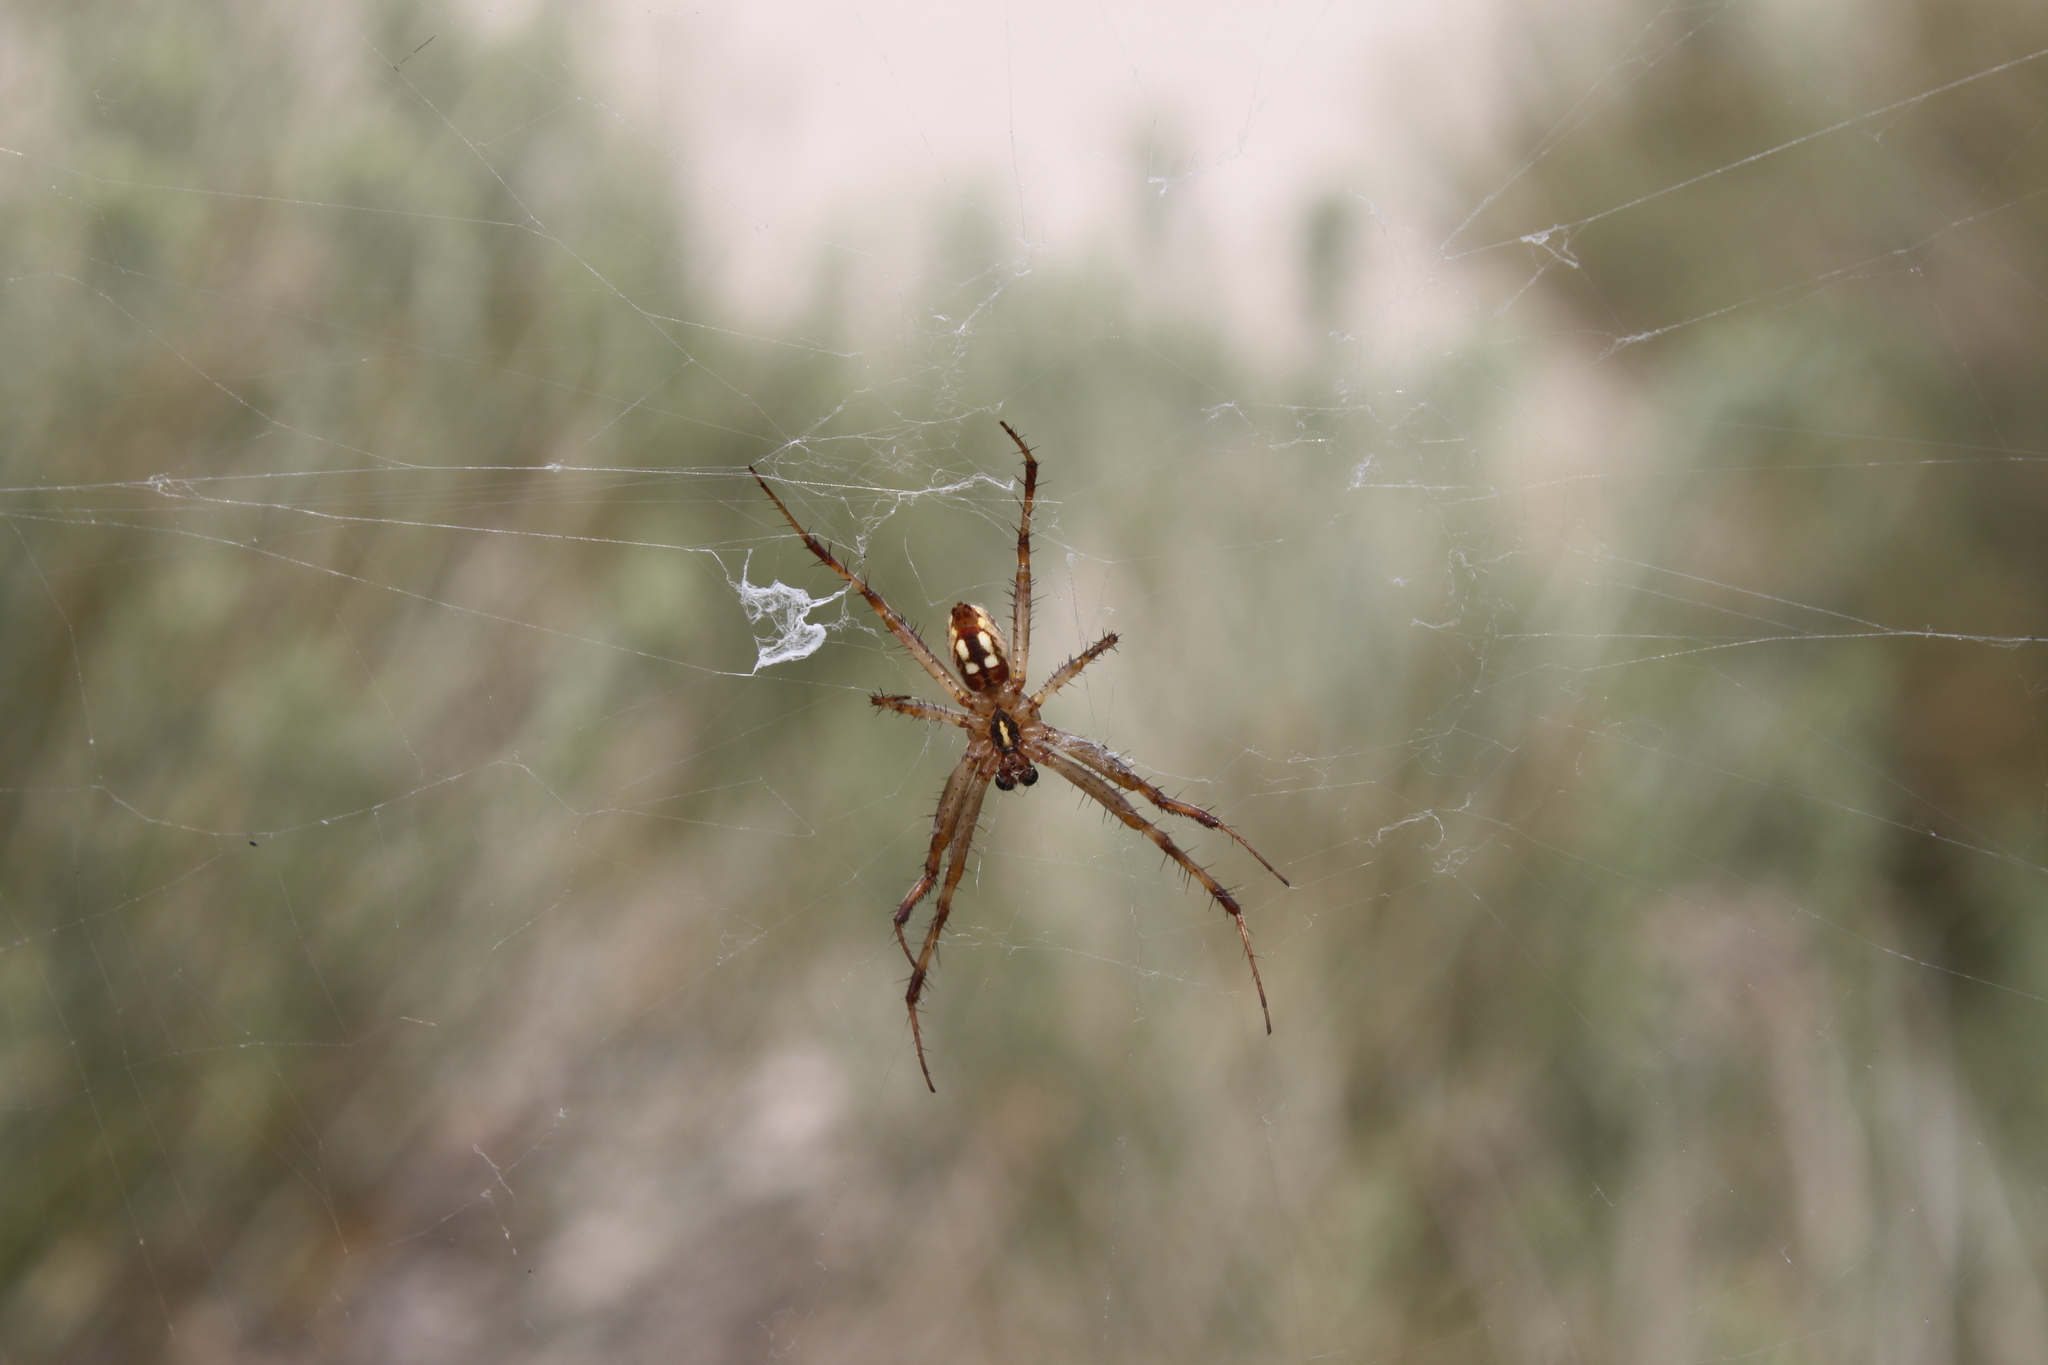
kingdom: Animalia
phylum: Arthropoda
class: Arachnida
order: Araneae
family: Araneidae
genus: Neoscona
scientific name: Neoscona oaxacensis
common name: Orb weavers
